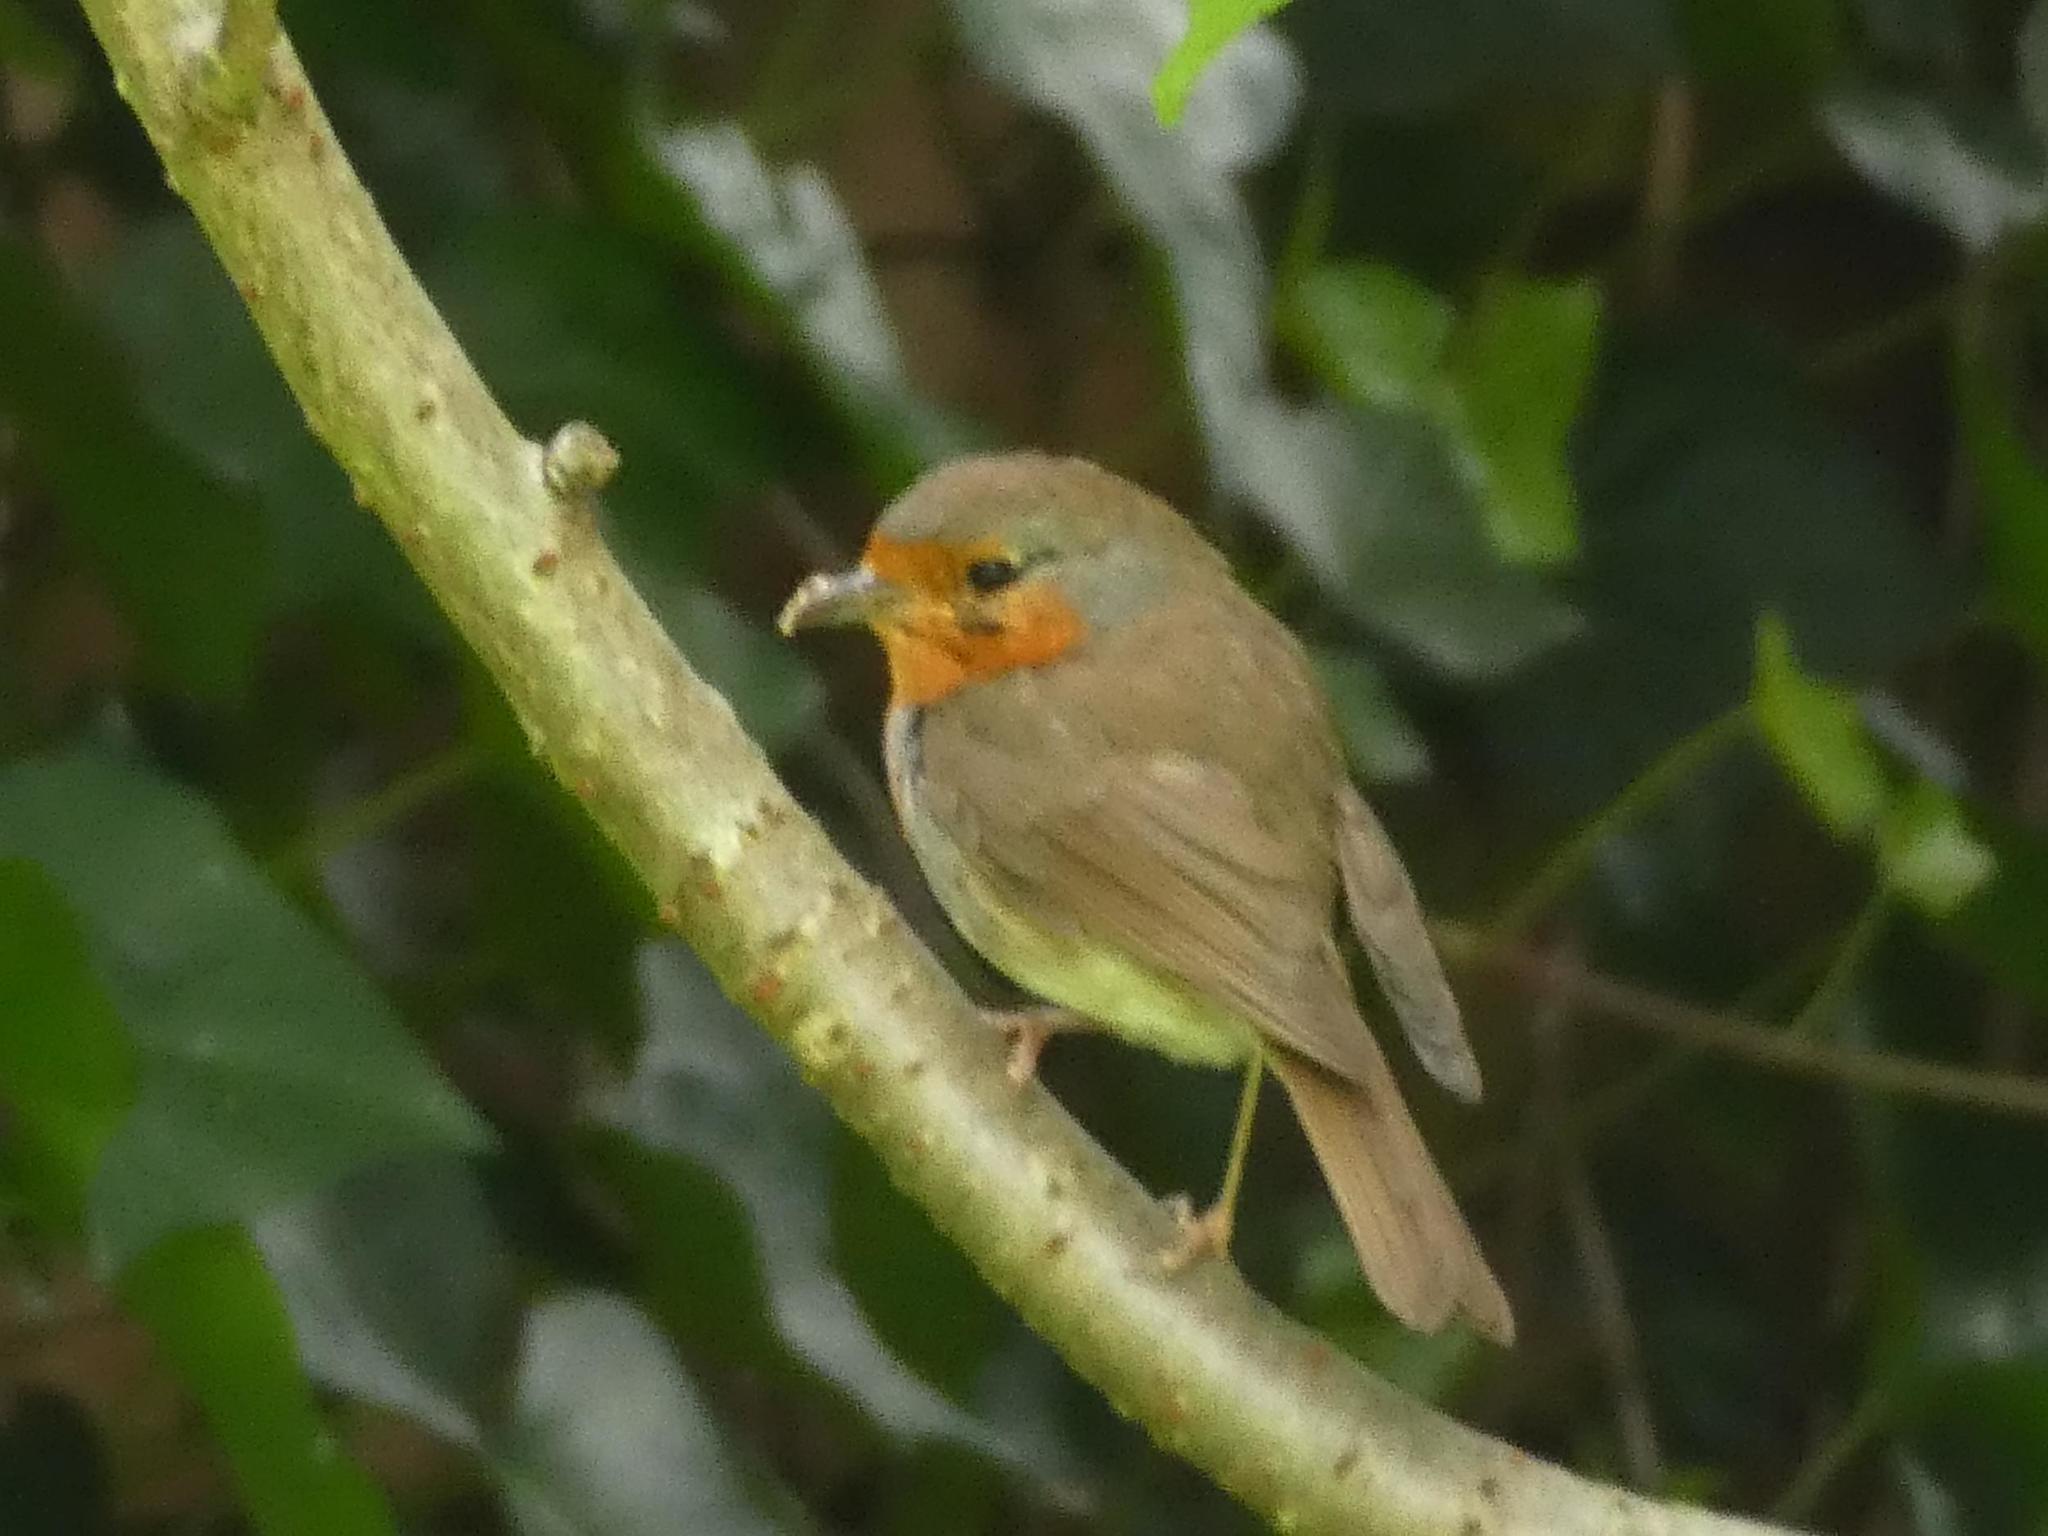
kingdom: Animalia
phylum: Chordata
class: Aves
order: Passeriformes
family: Muscicapidae
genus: Erithacus
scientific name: Erithacus rubecula
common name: European robin
